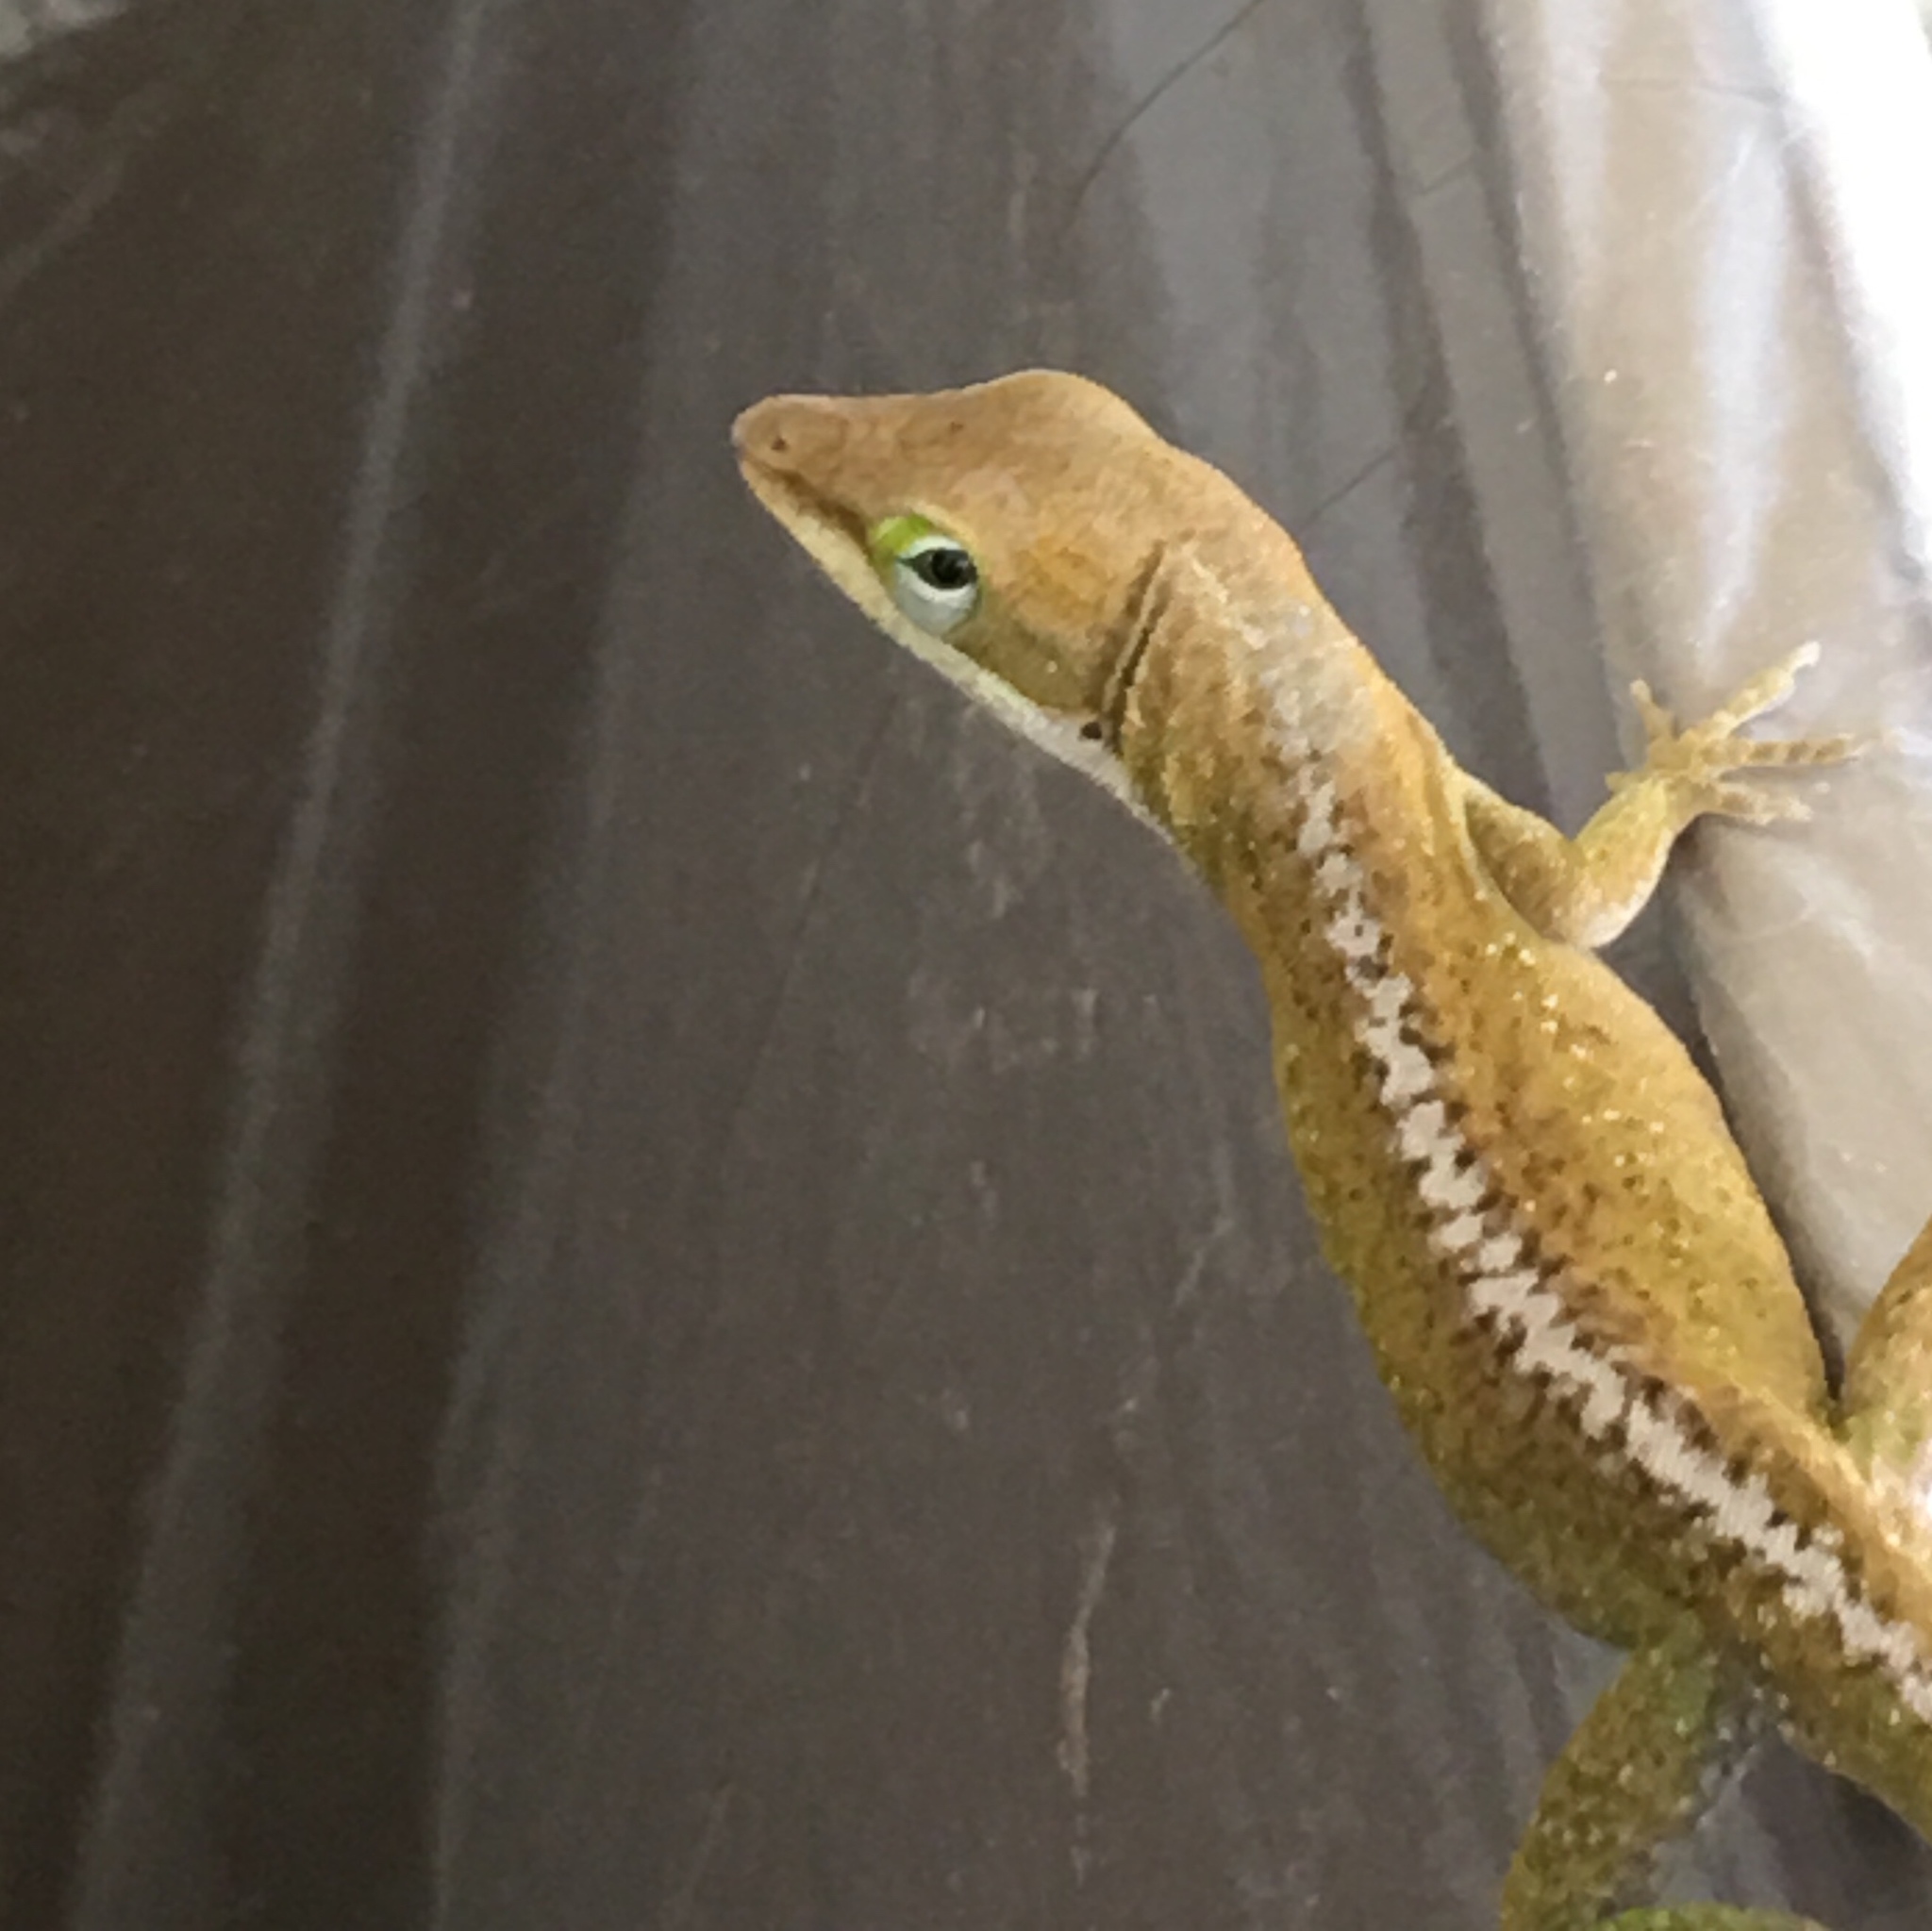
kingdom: Animalia
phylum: Chordata
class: Squamata
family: Dactyloidae
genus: Anolis
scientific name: Anolis carolinensis
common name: Green anole
